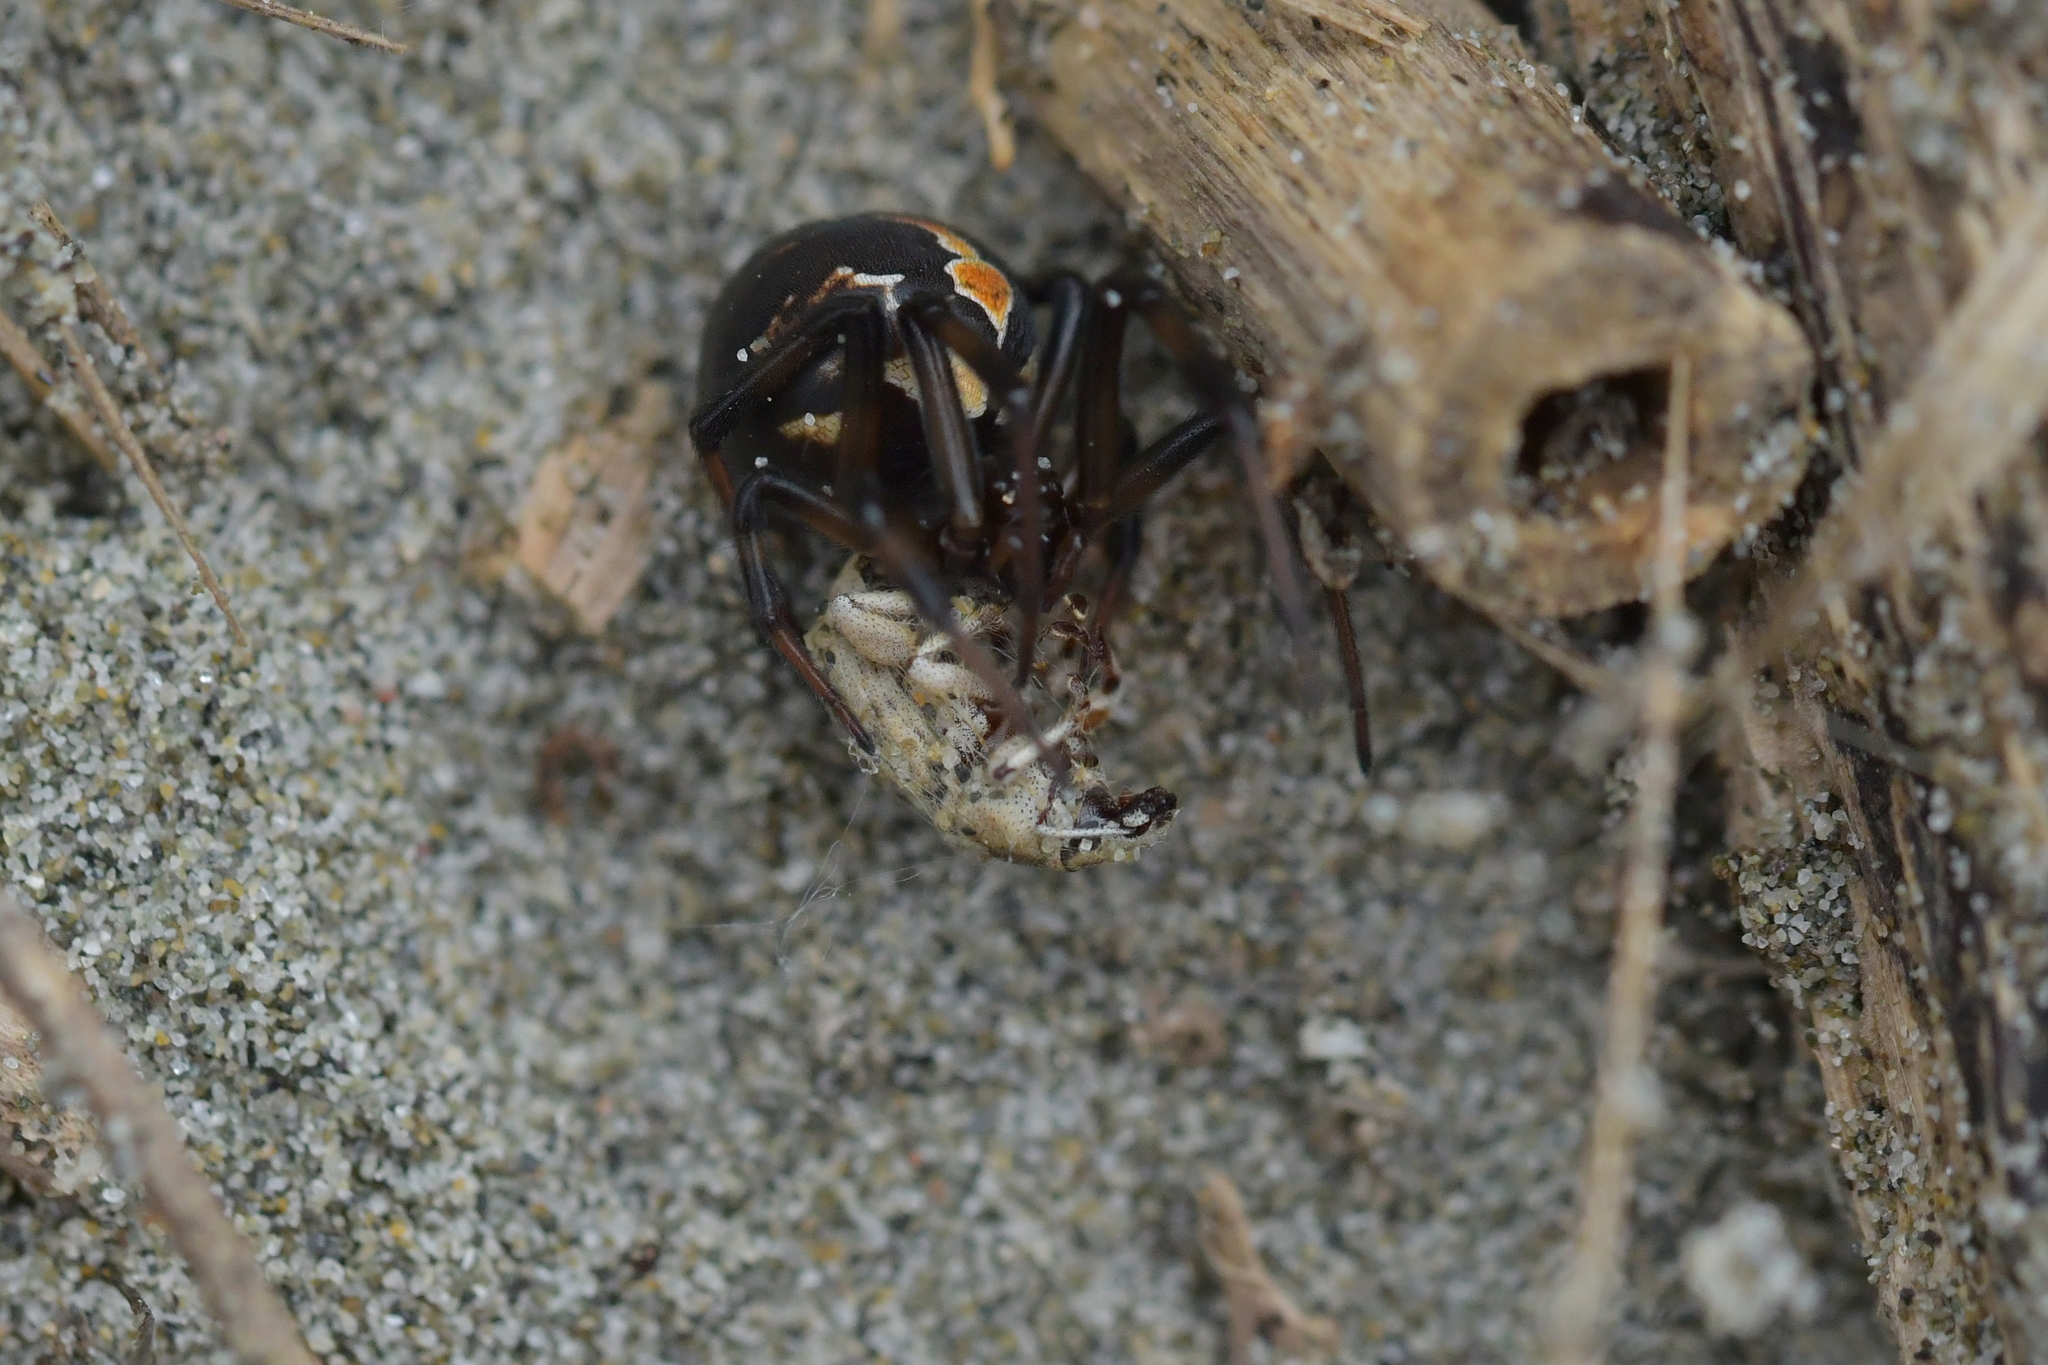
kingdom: Animalia
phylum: Arthropoda
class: Insecta
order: Coleoptera
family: Curculionidae
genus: Cecyropa
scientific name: Cecyropa modesta
